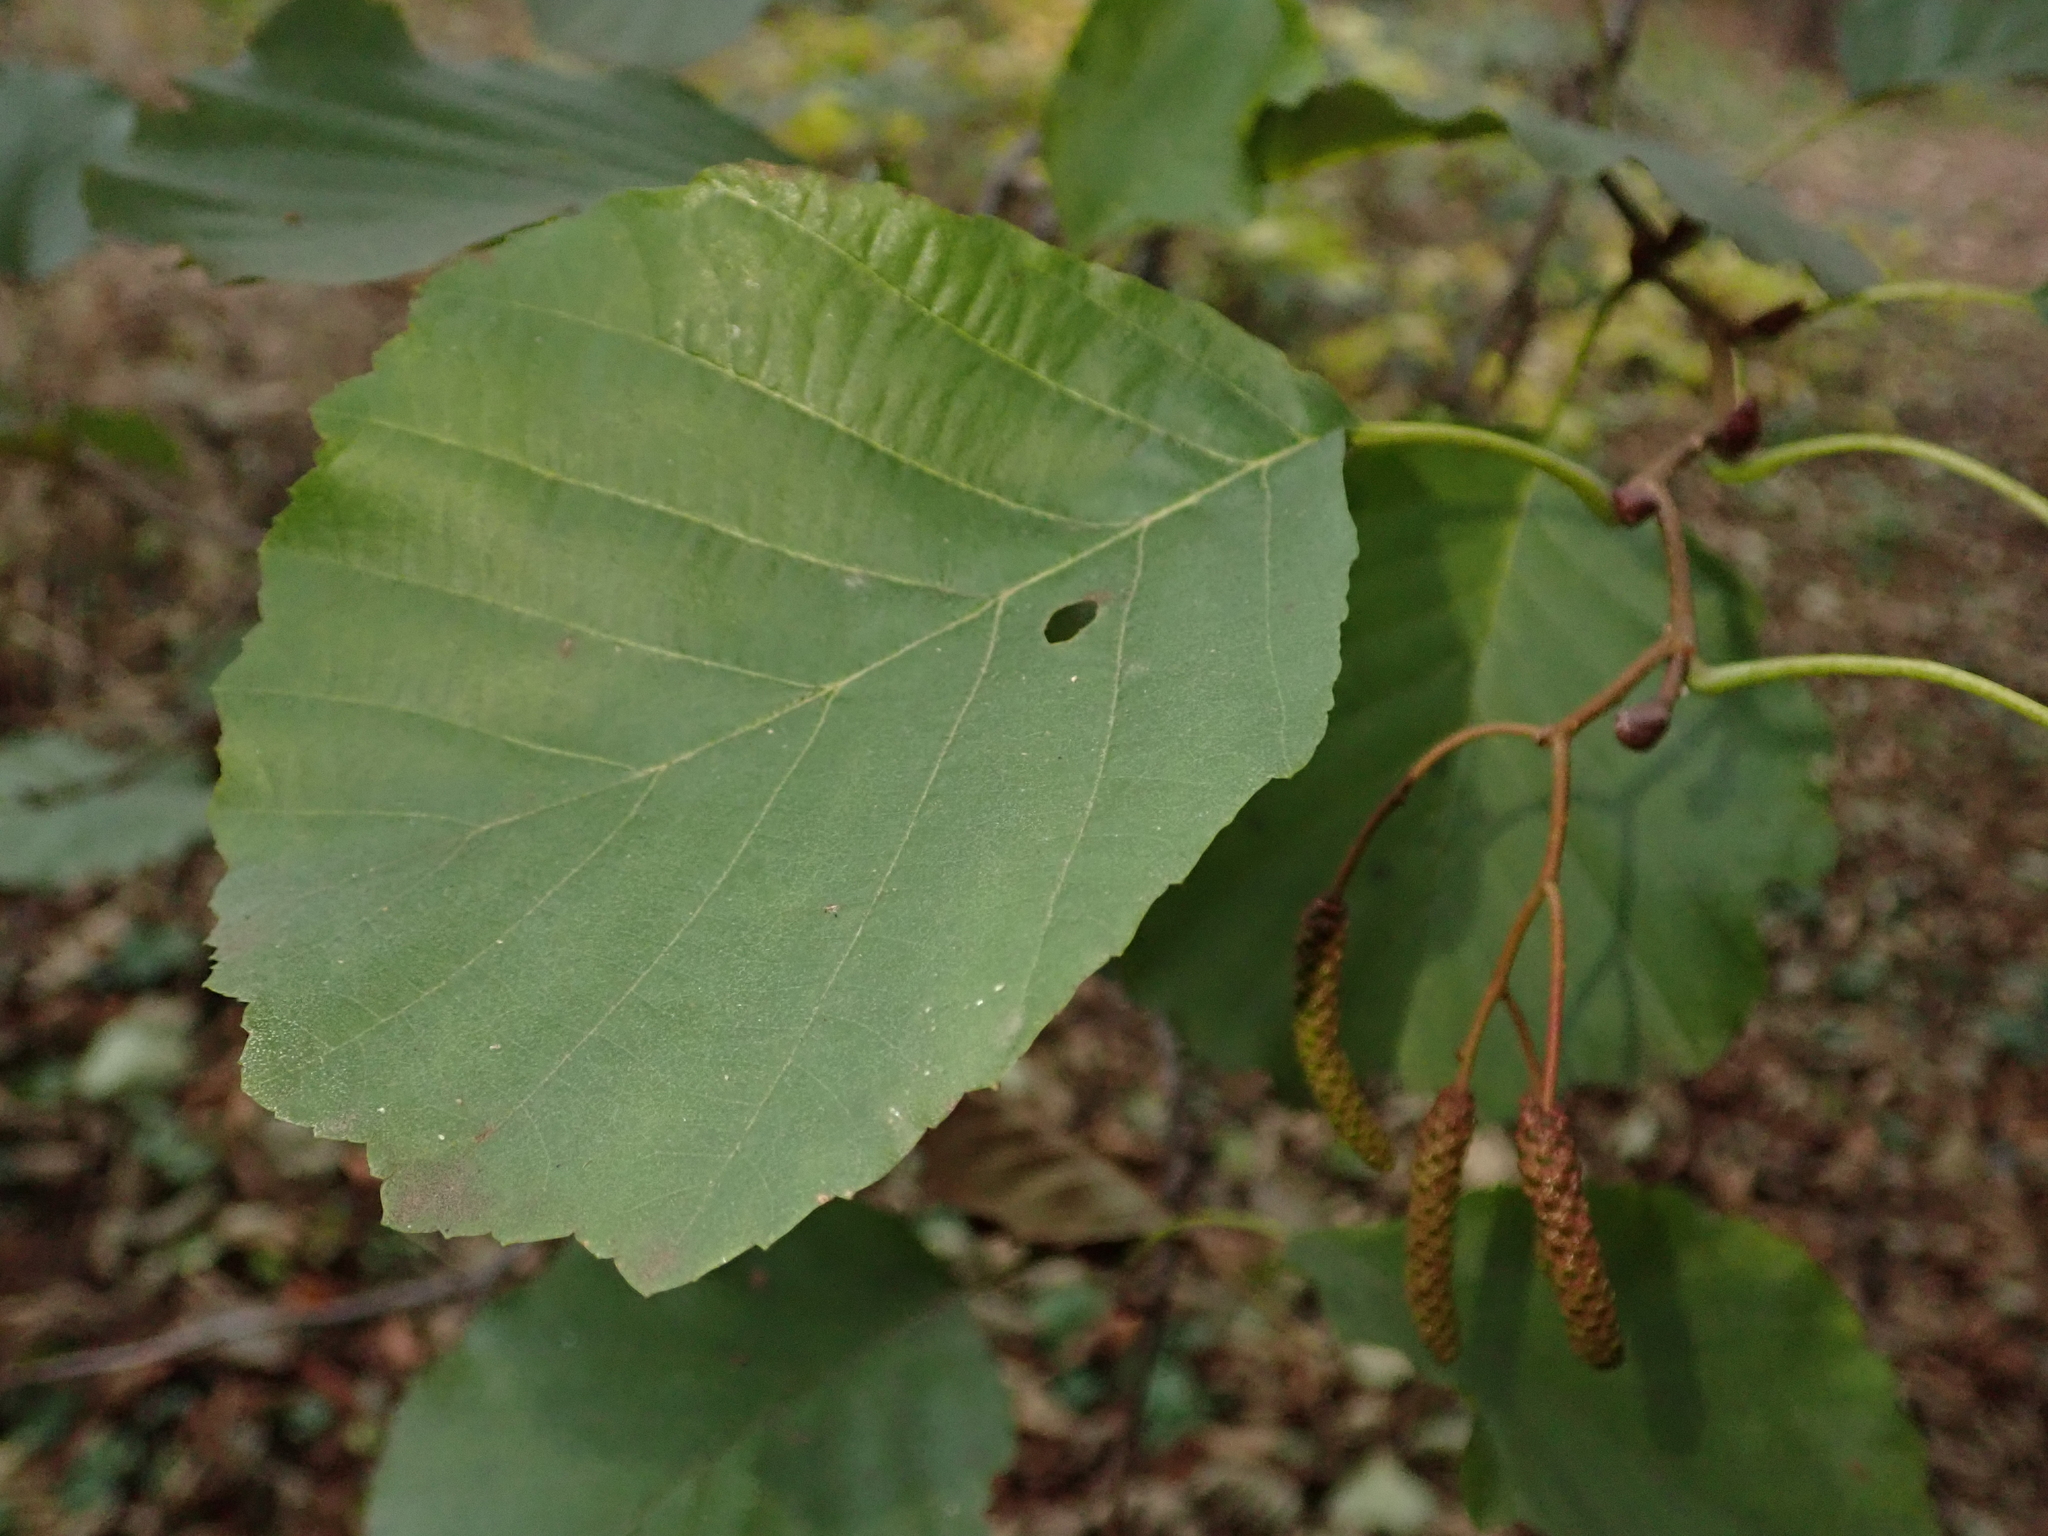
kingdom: Plantae
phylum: Tracheophyta
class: Magnoliopsida
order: Fagales
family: Betulaceae
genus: Alnus
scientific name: Alnus glutinosa
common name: Black alder
